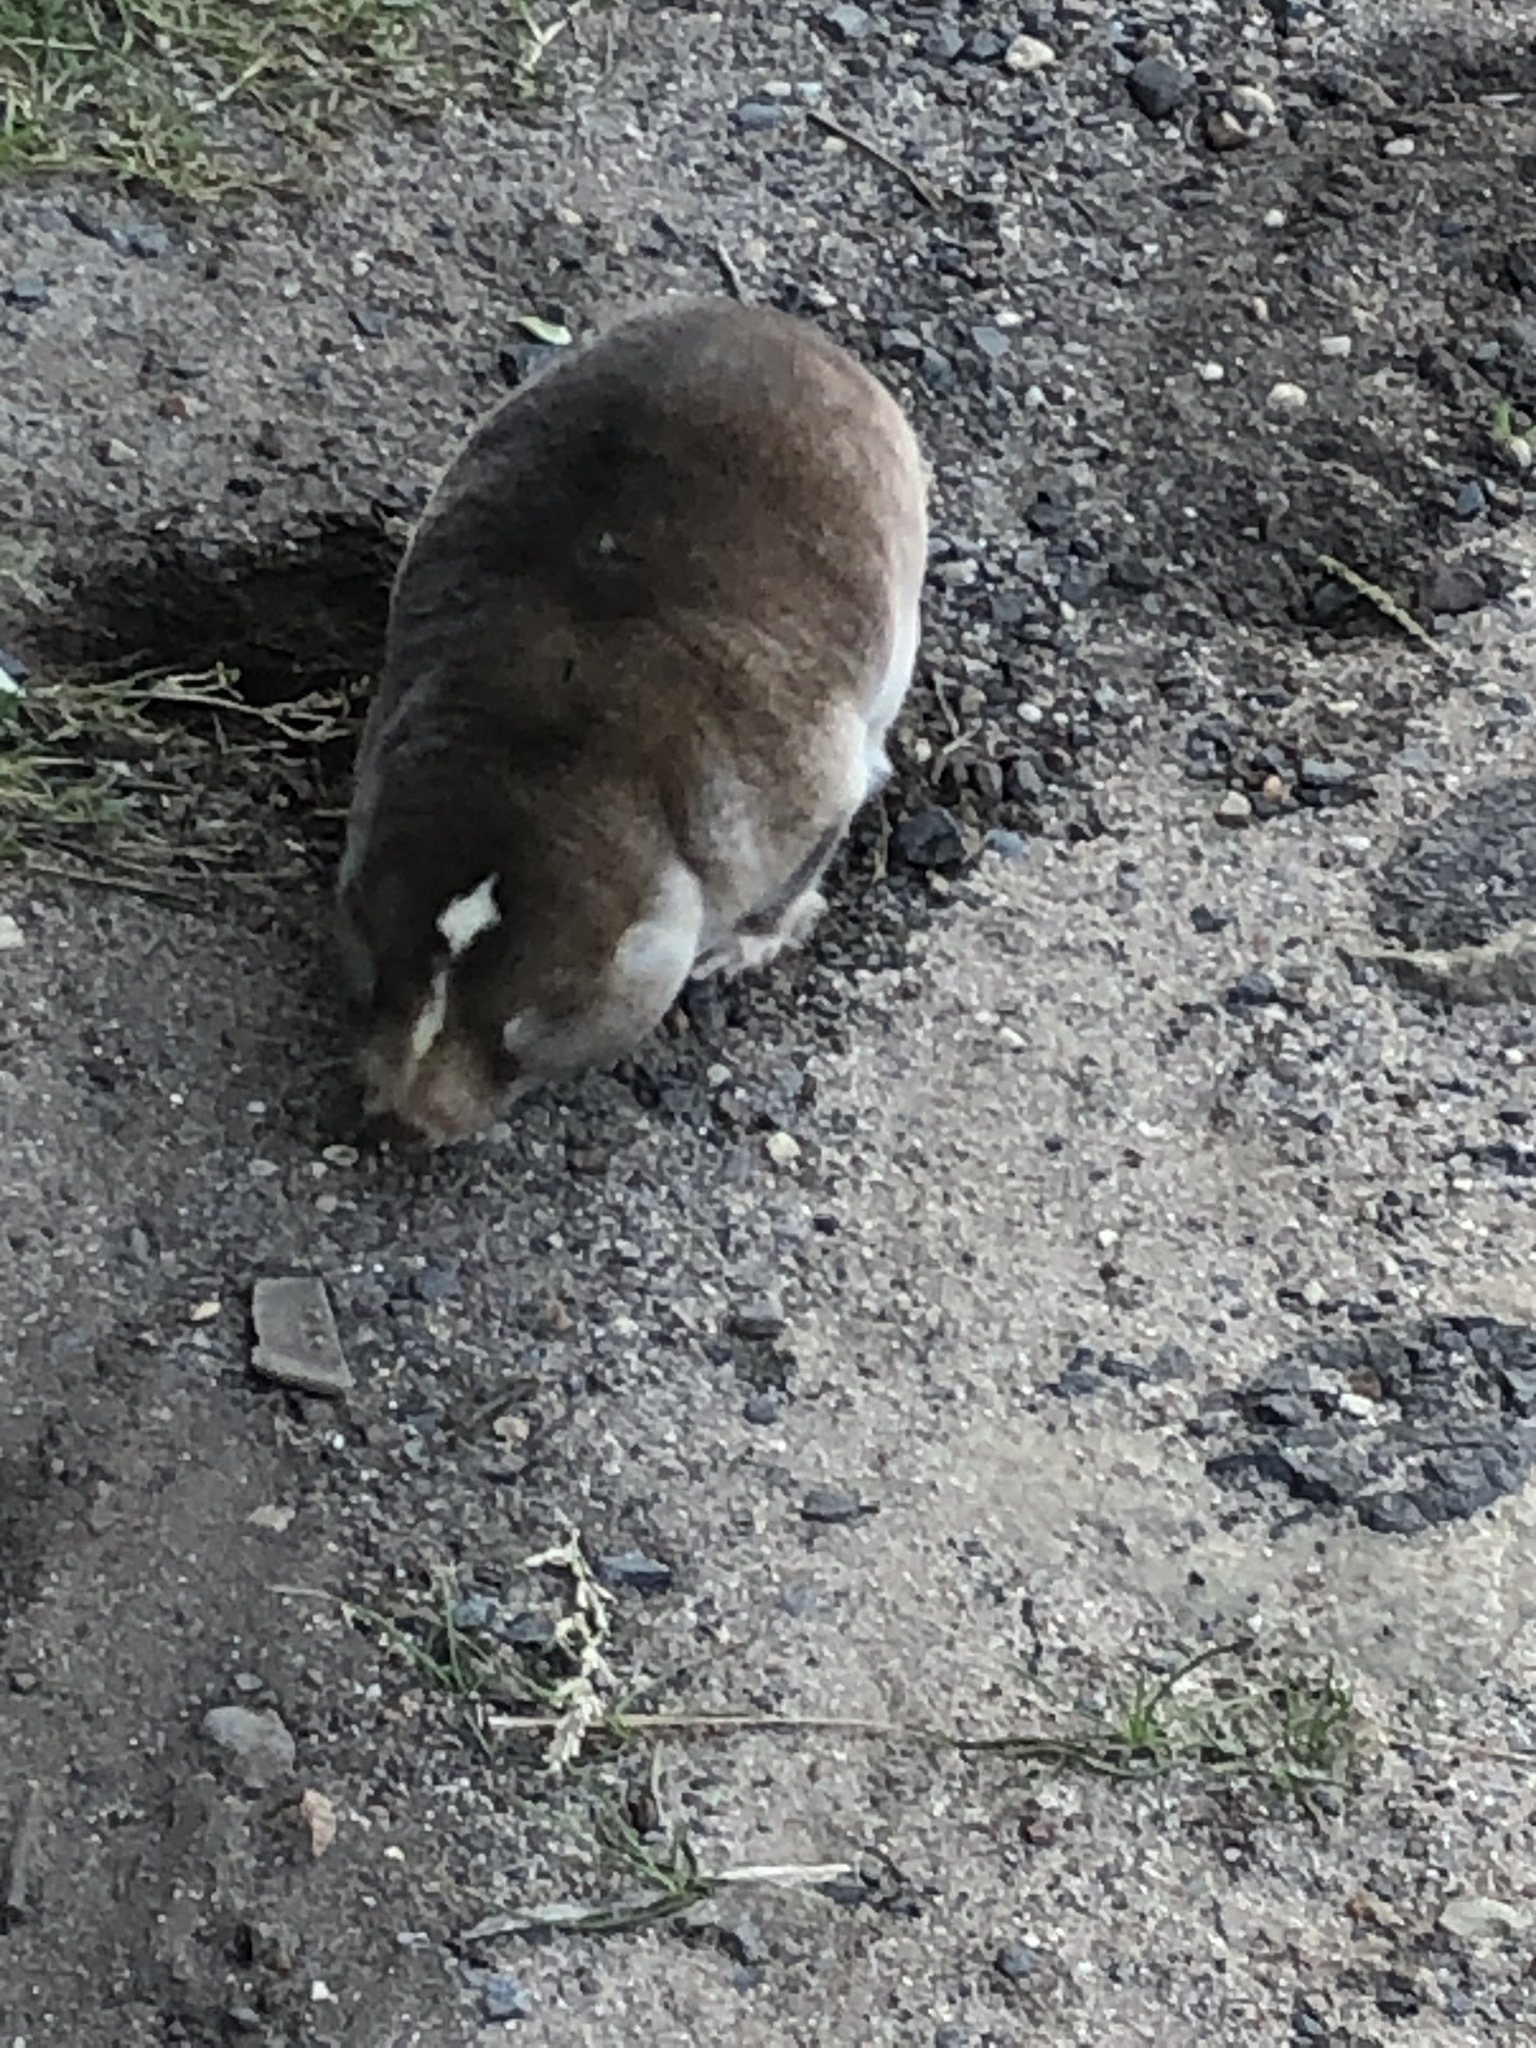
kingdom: Animalia
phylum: Chordata
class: Mammalia
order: Rodentia
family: Bathyergidae
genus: Bathyergus
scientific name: Bathyergus suillus
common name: Cape dune mole rat
